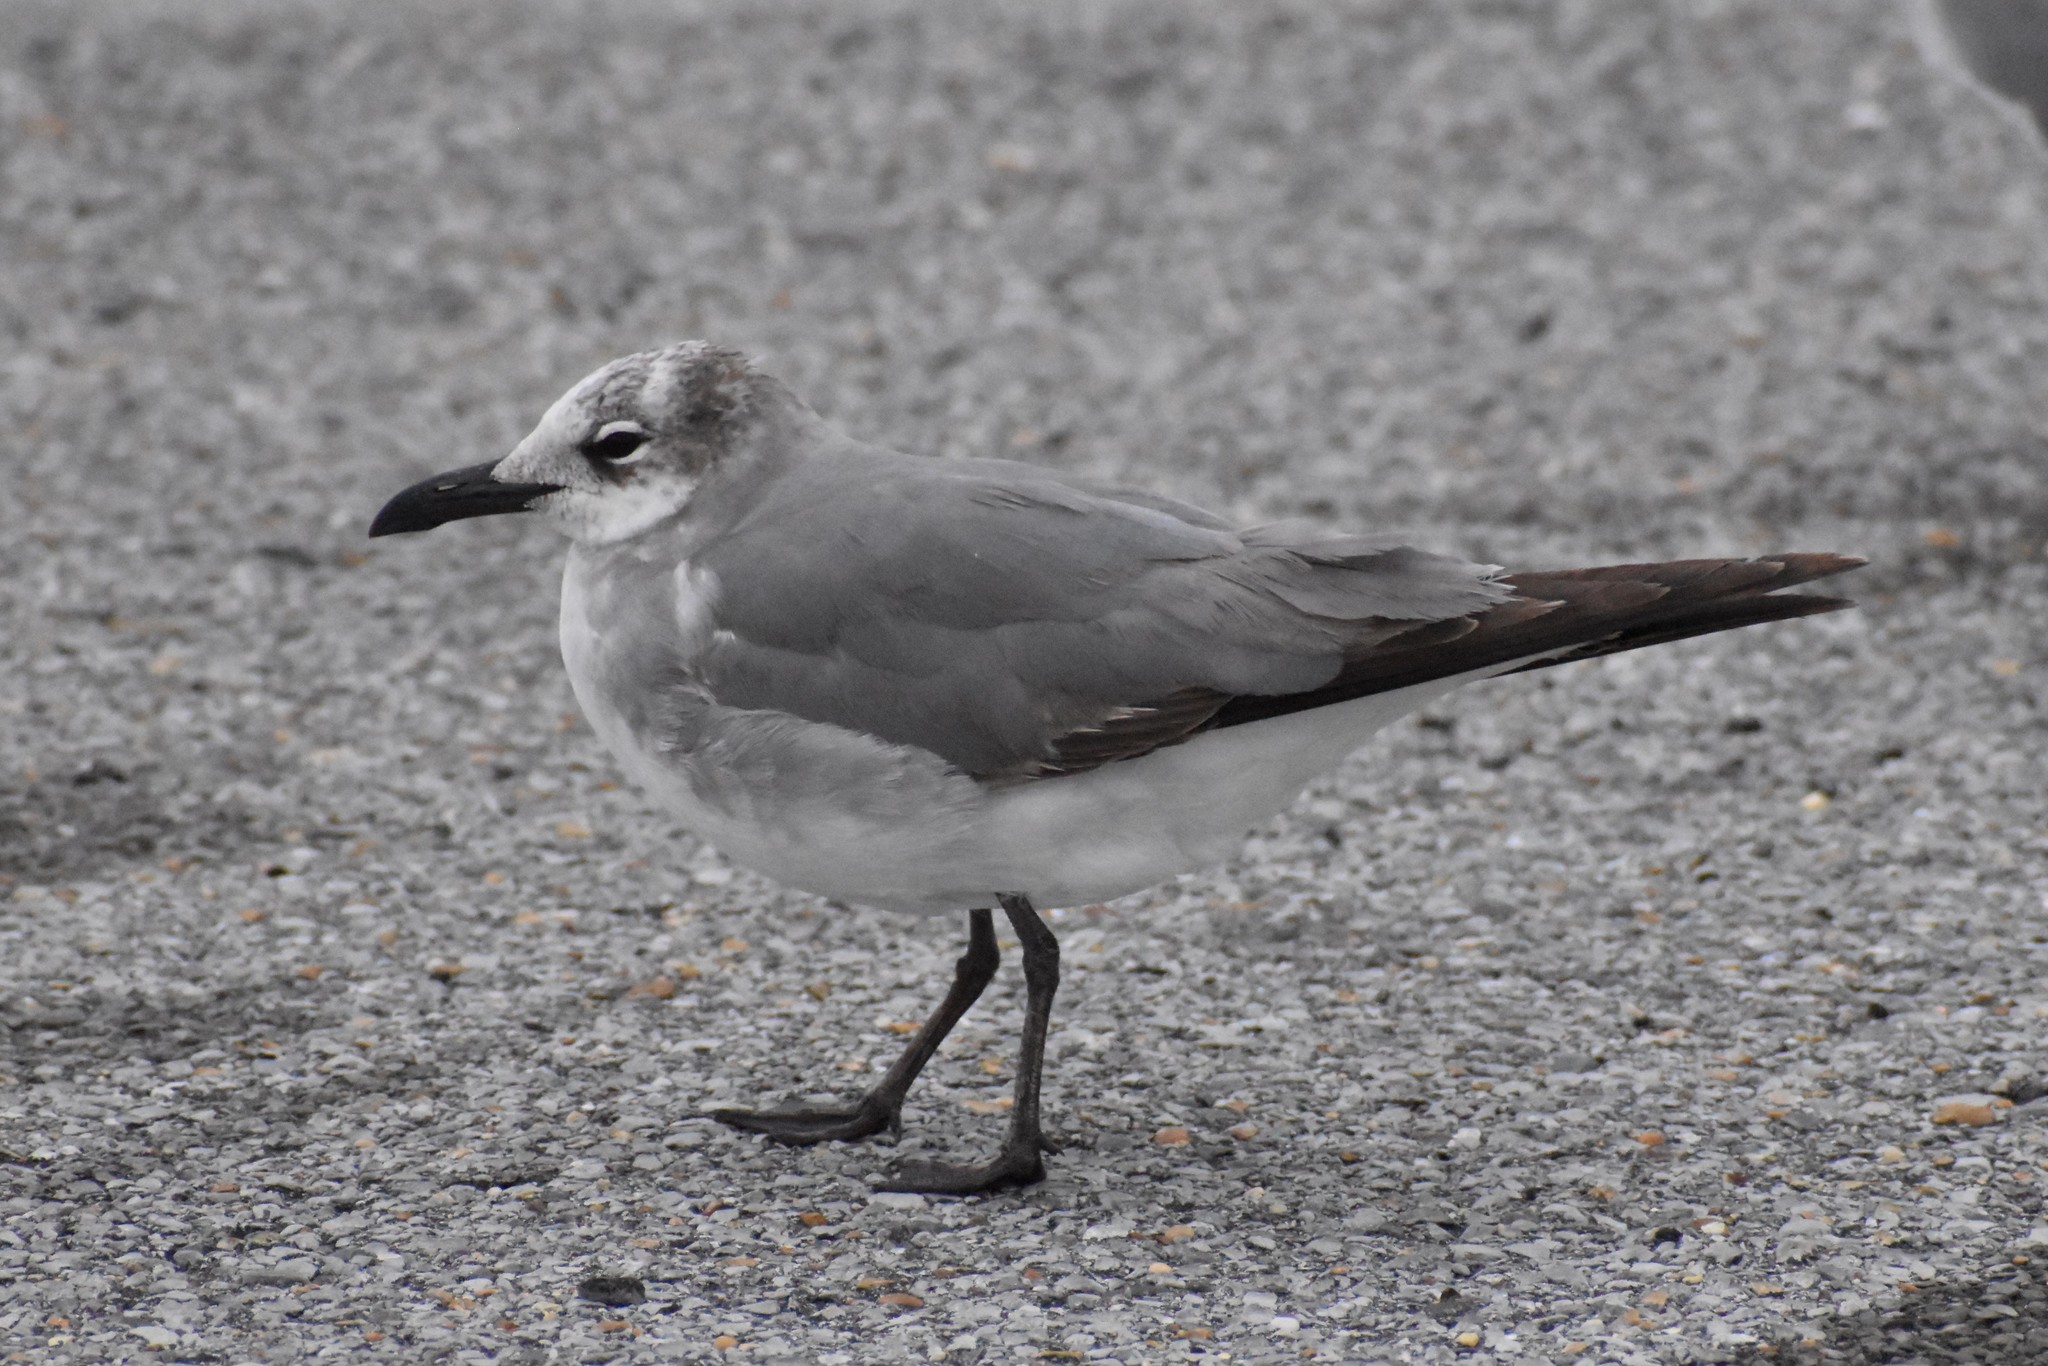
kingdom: Animalia
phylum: Chordata
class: Aves
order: Charadriiformes
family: Laridae
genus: Leucophaeus
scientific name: Leucophaeus atricilla
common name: Laughing gull
